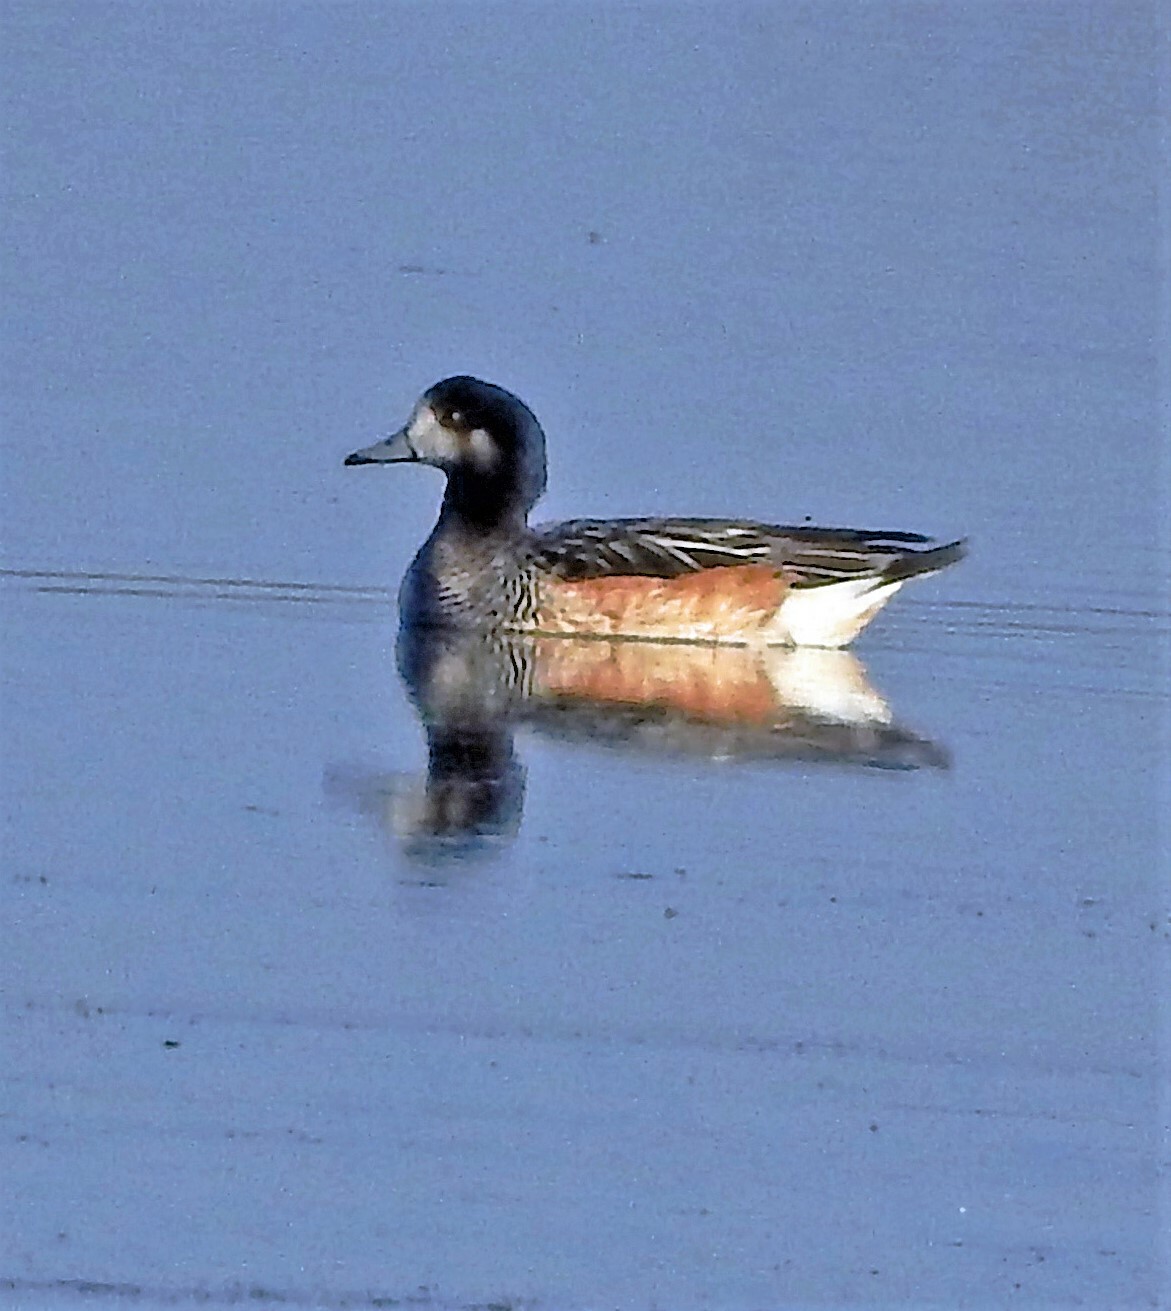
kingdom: Animalia
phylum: Chordata
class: Aves
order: Anseriformes
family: Anatidae
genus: Mareca
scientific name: Mareca sibilatrix
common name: Chiloe wigeon
